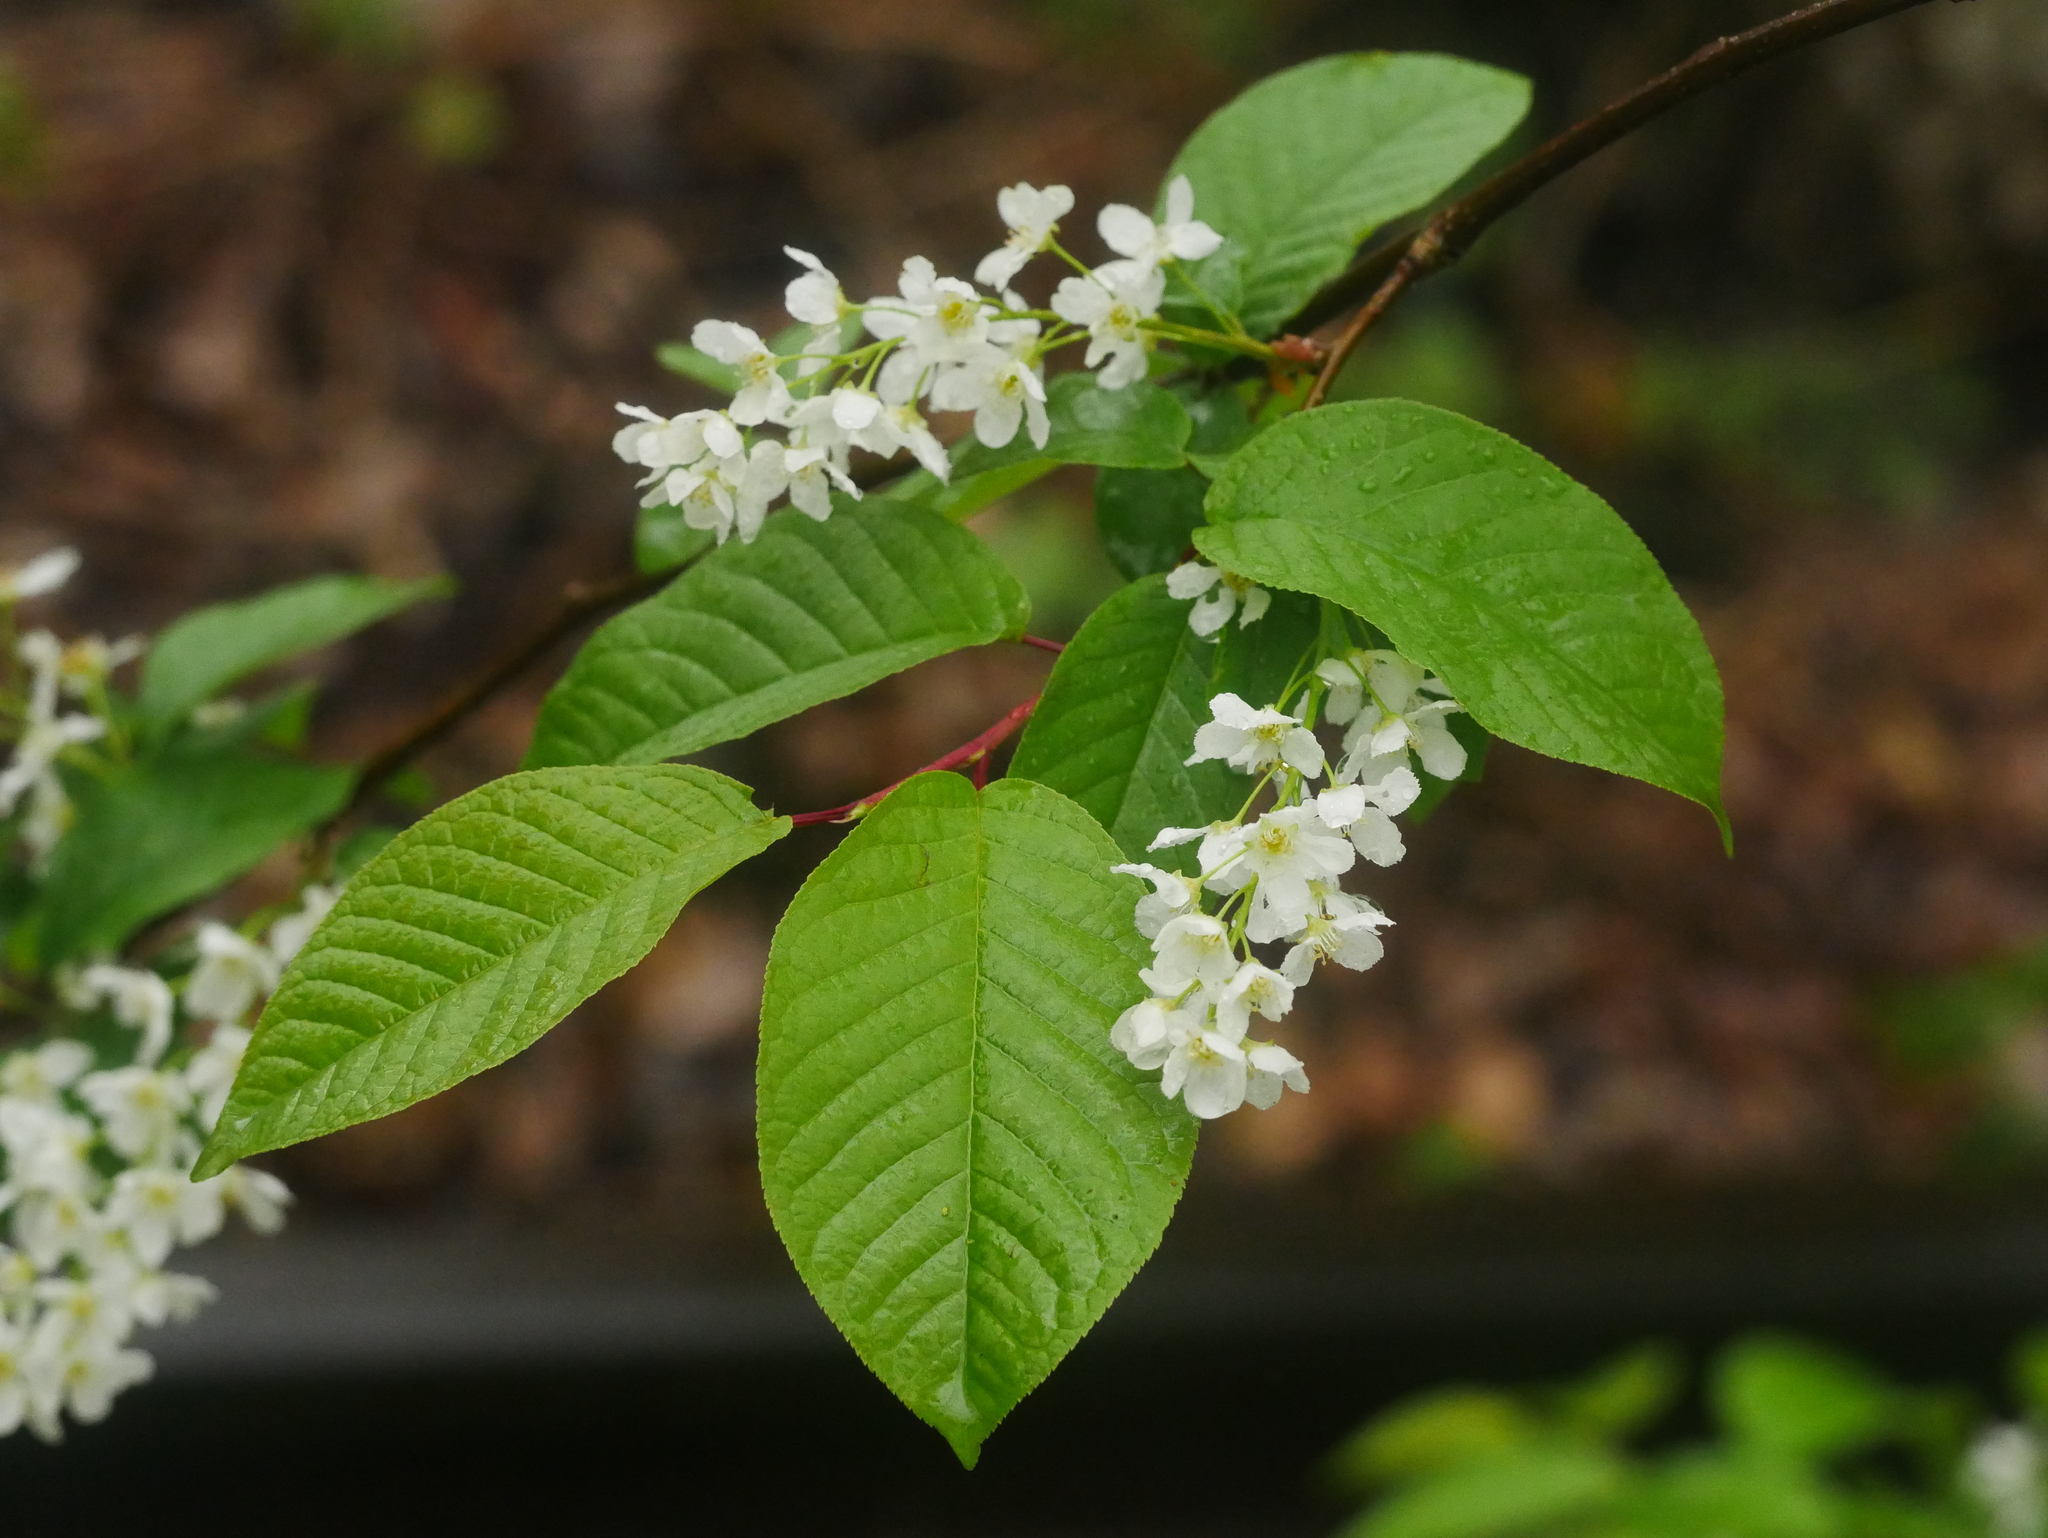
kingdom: Plantae
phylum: Tracheophyta
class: Magnoliopsida
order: Rosales
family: Rosaceae
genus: Prunus
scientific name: Prunus padus
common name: Bird cherry
